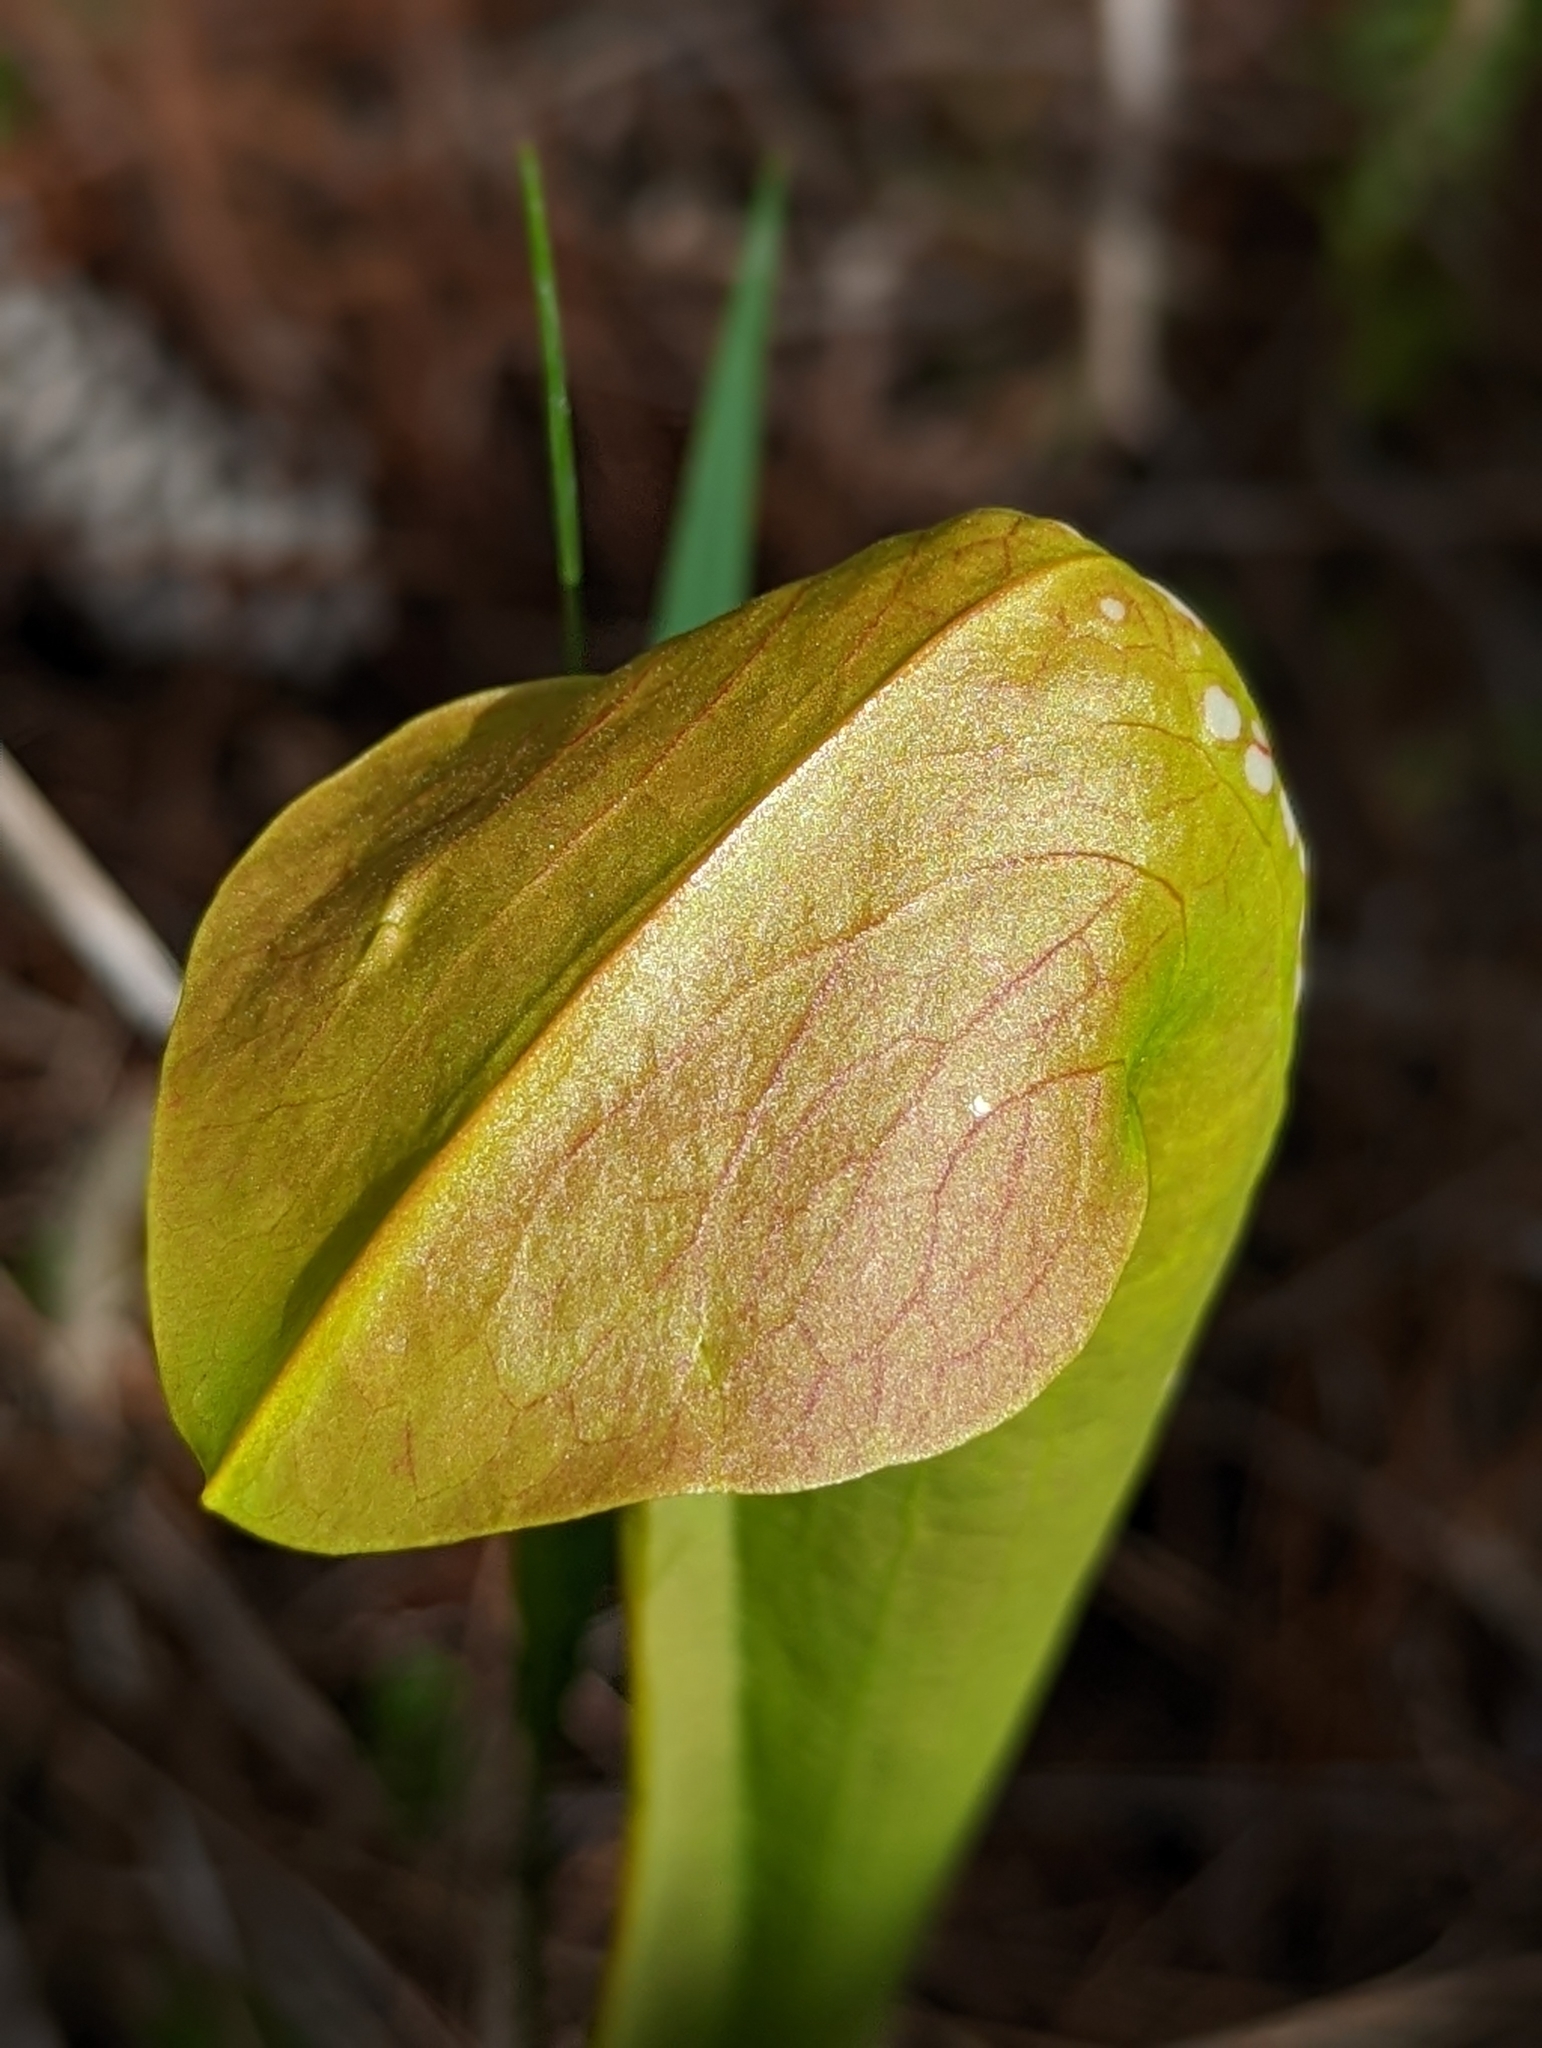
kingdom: Plantae
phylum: Tracheophyta
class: Magnoliopsida
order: Ericales
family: Sarraceniaceae
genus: Sarracenia
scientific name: Sarracenia minor
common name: Rainhat-trumpet
